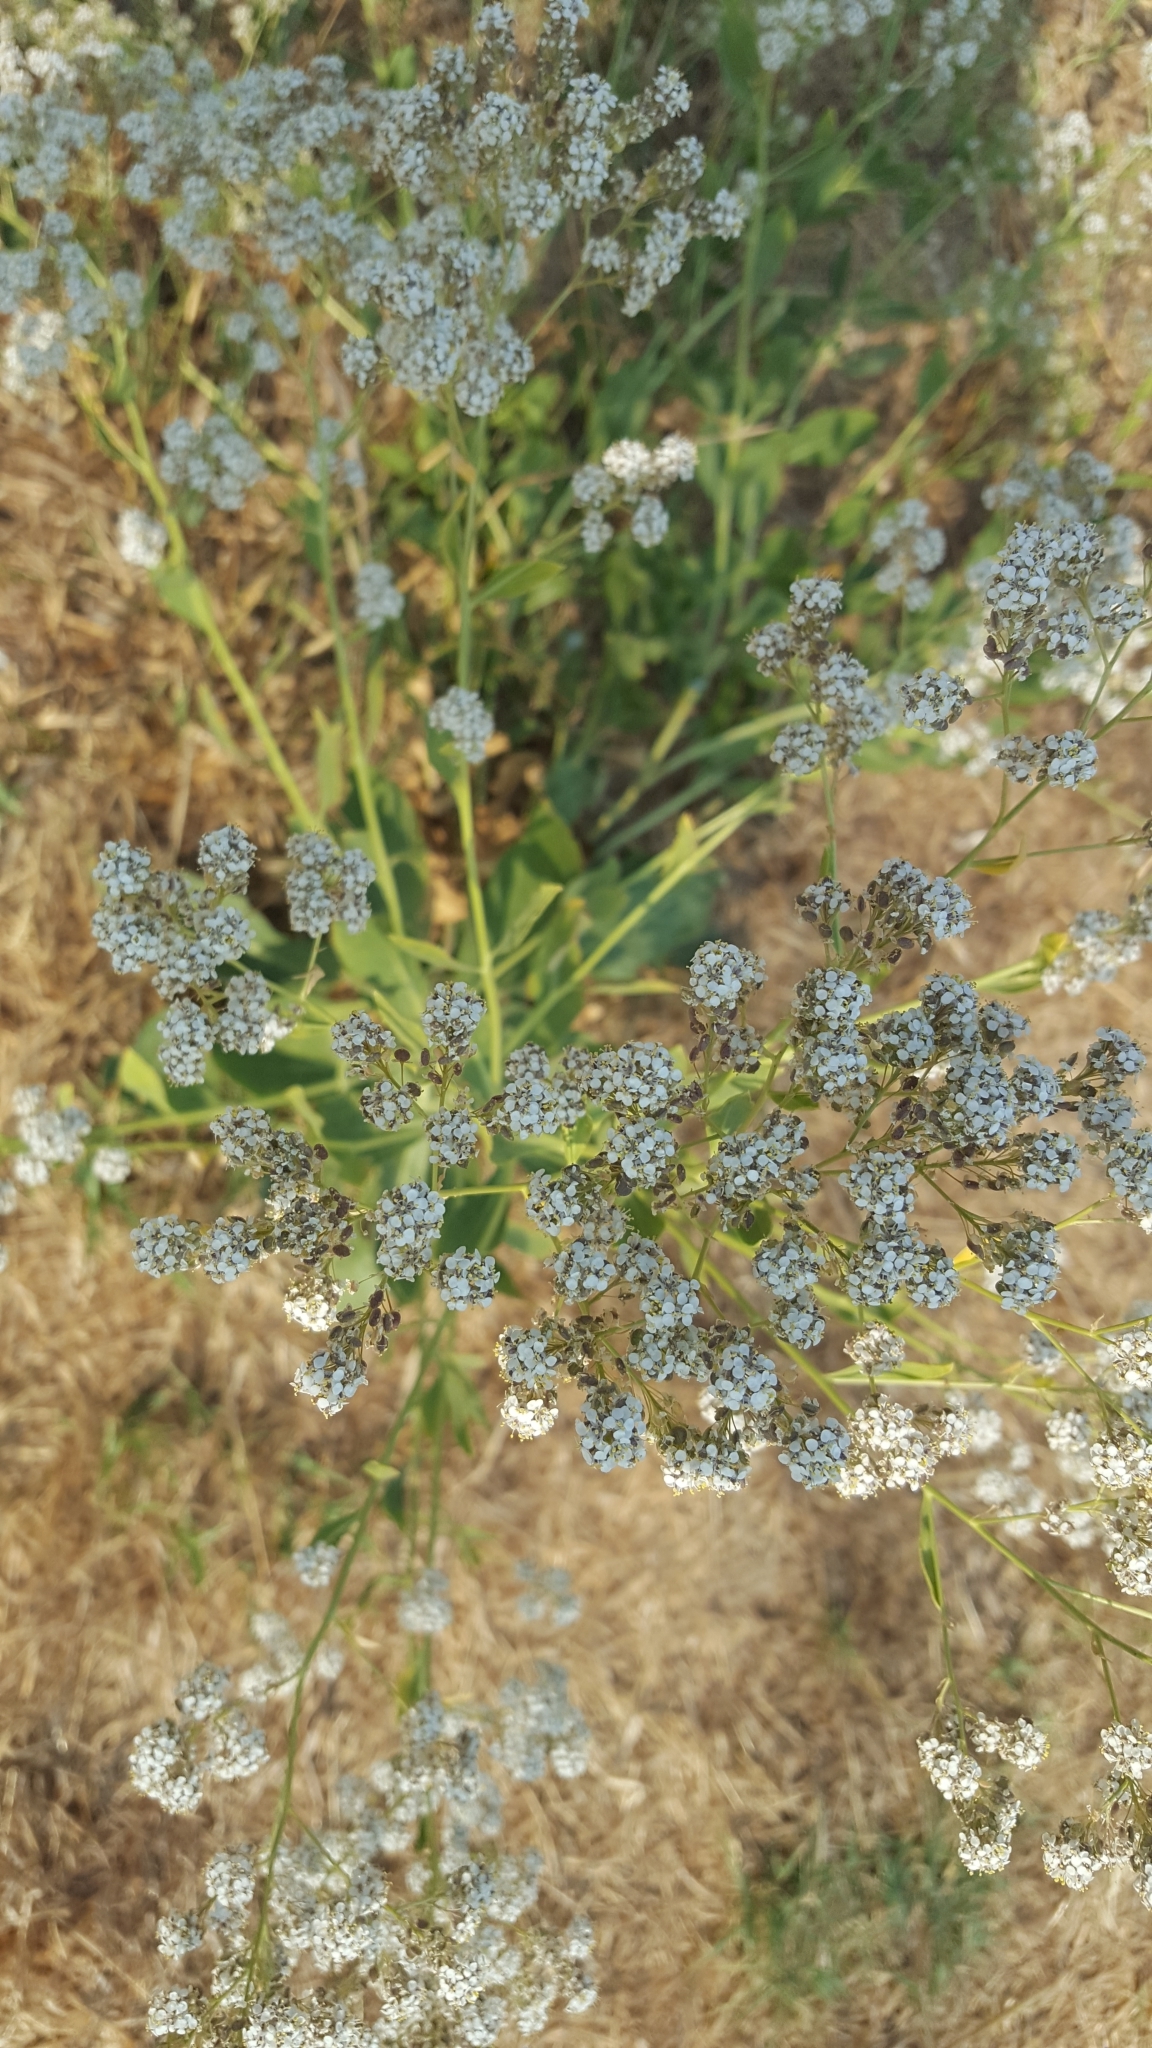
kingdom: Plantae
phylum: Tracheophyta
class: Magnoliopsida
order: Brassicales
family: Brassicaceae
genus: Lepidium
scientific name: Lepidium latifolium
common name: Dittander
